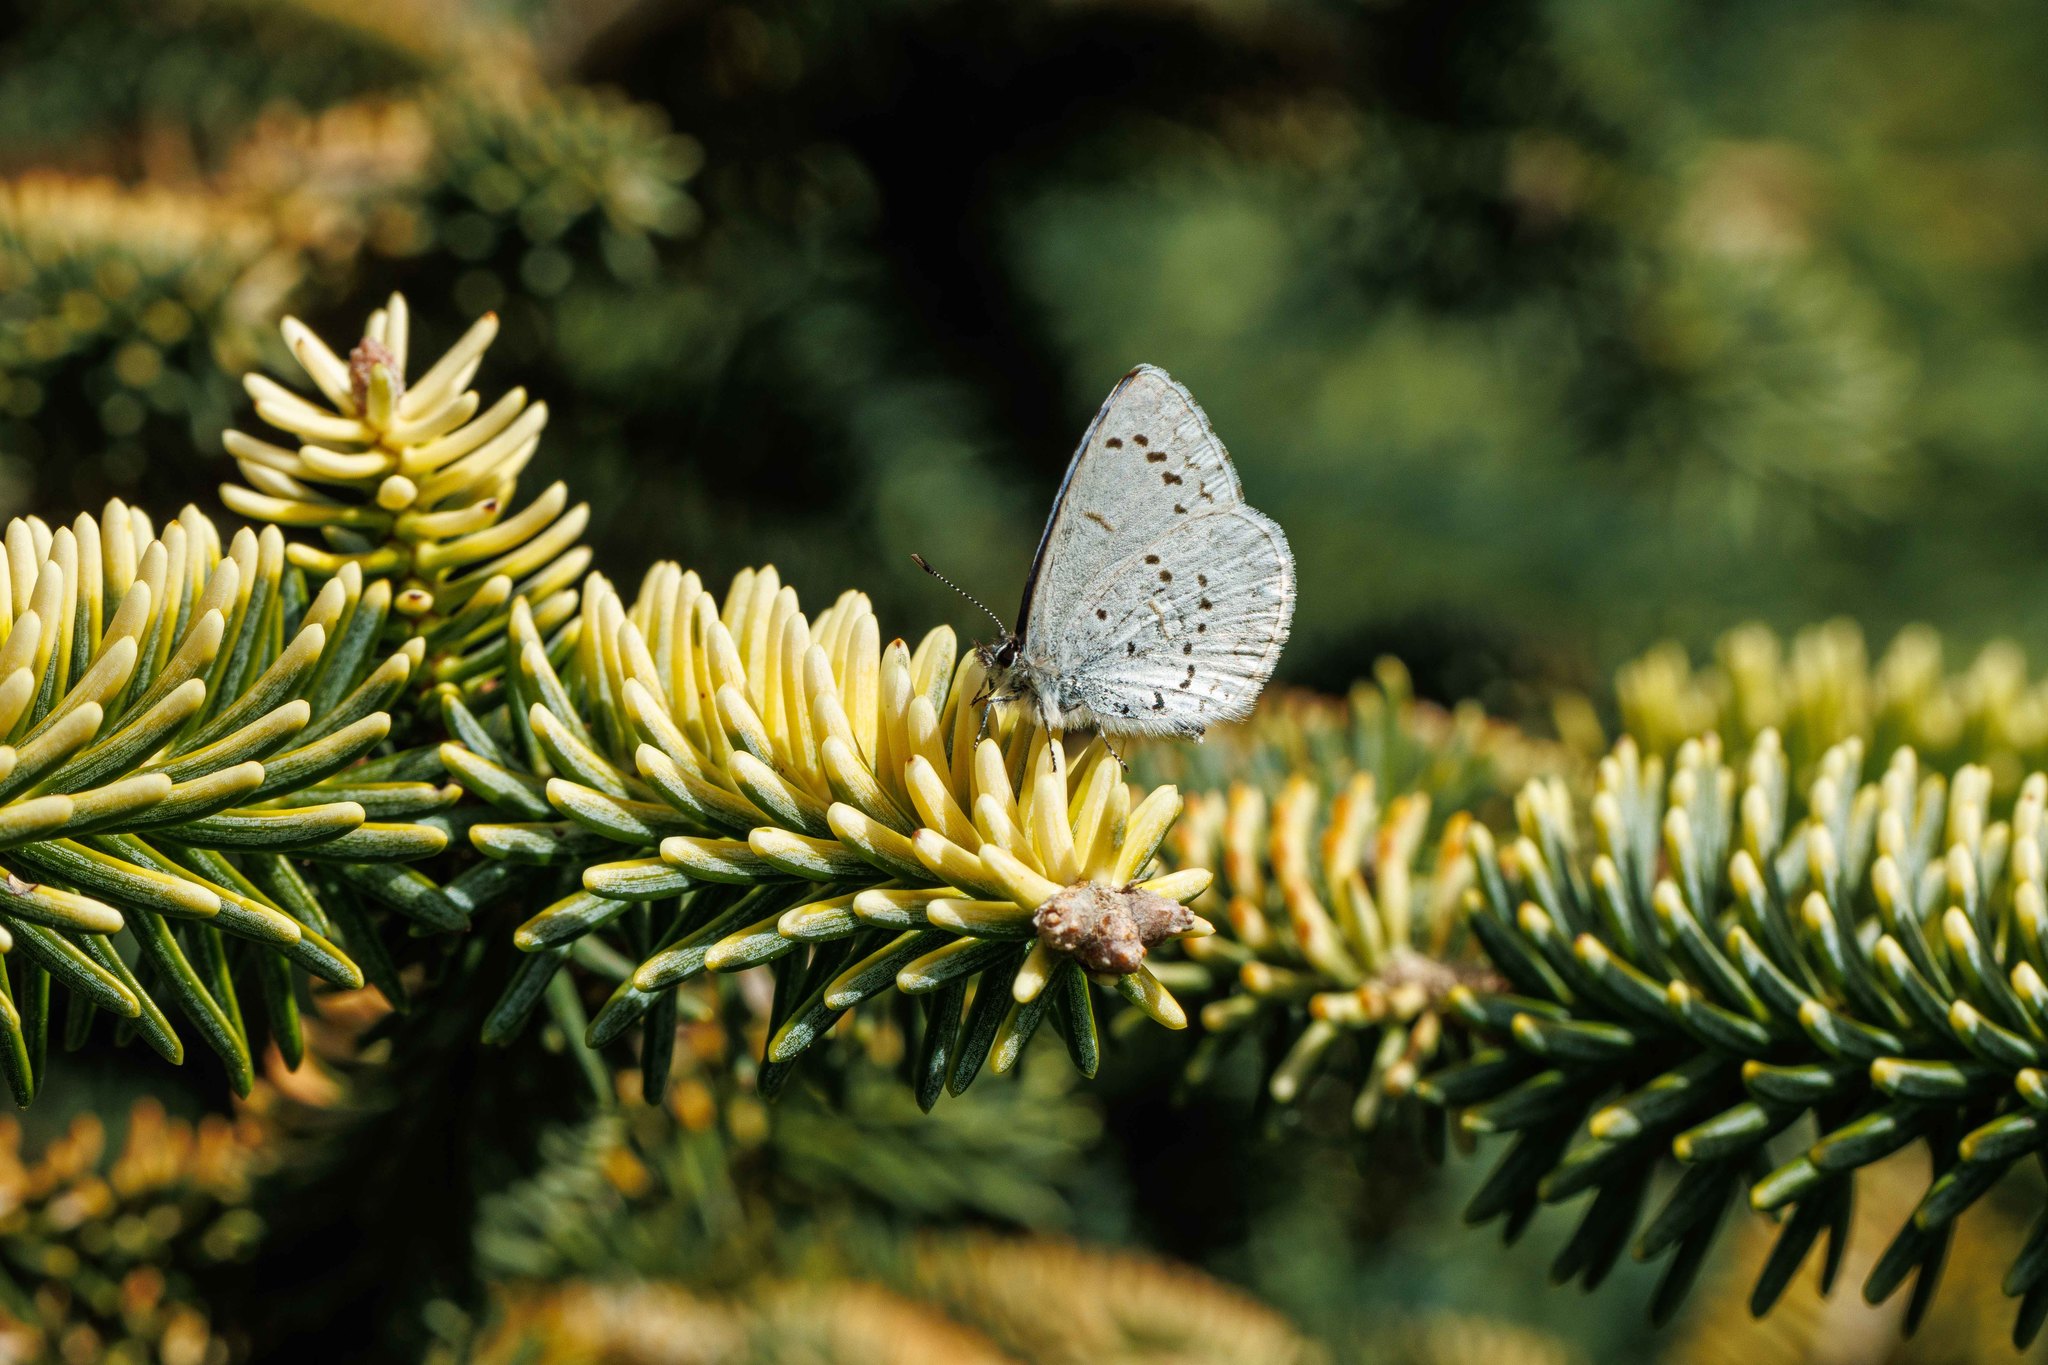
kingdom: Animalia
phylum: Arthropoda
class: Insecta
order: Lepidoptera
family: Lycaenidae
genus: Celastrina
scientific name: Celastrina ladon
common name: Spring azure
